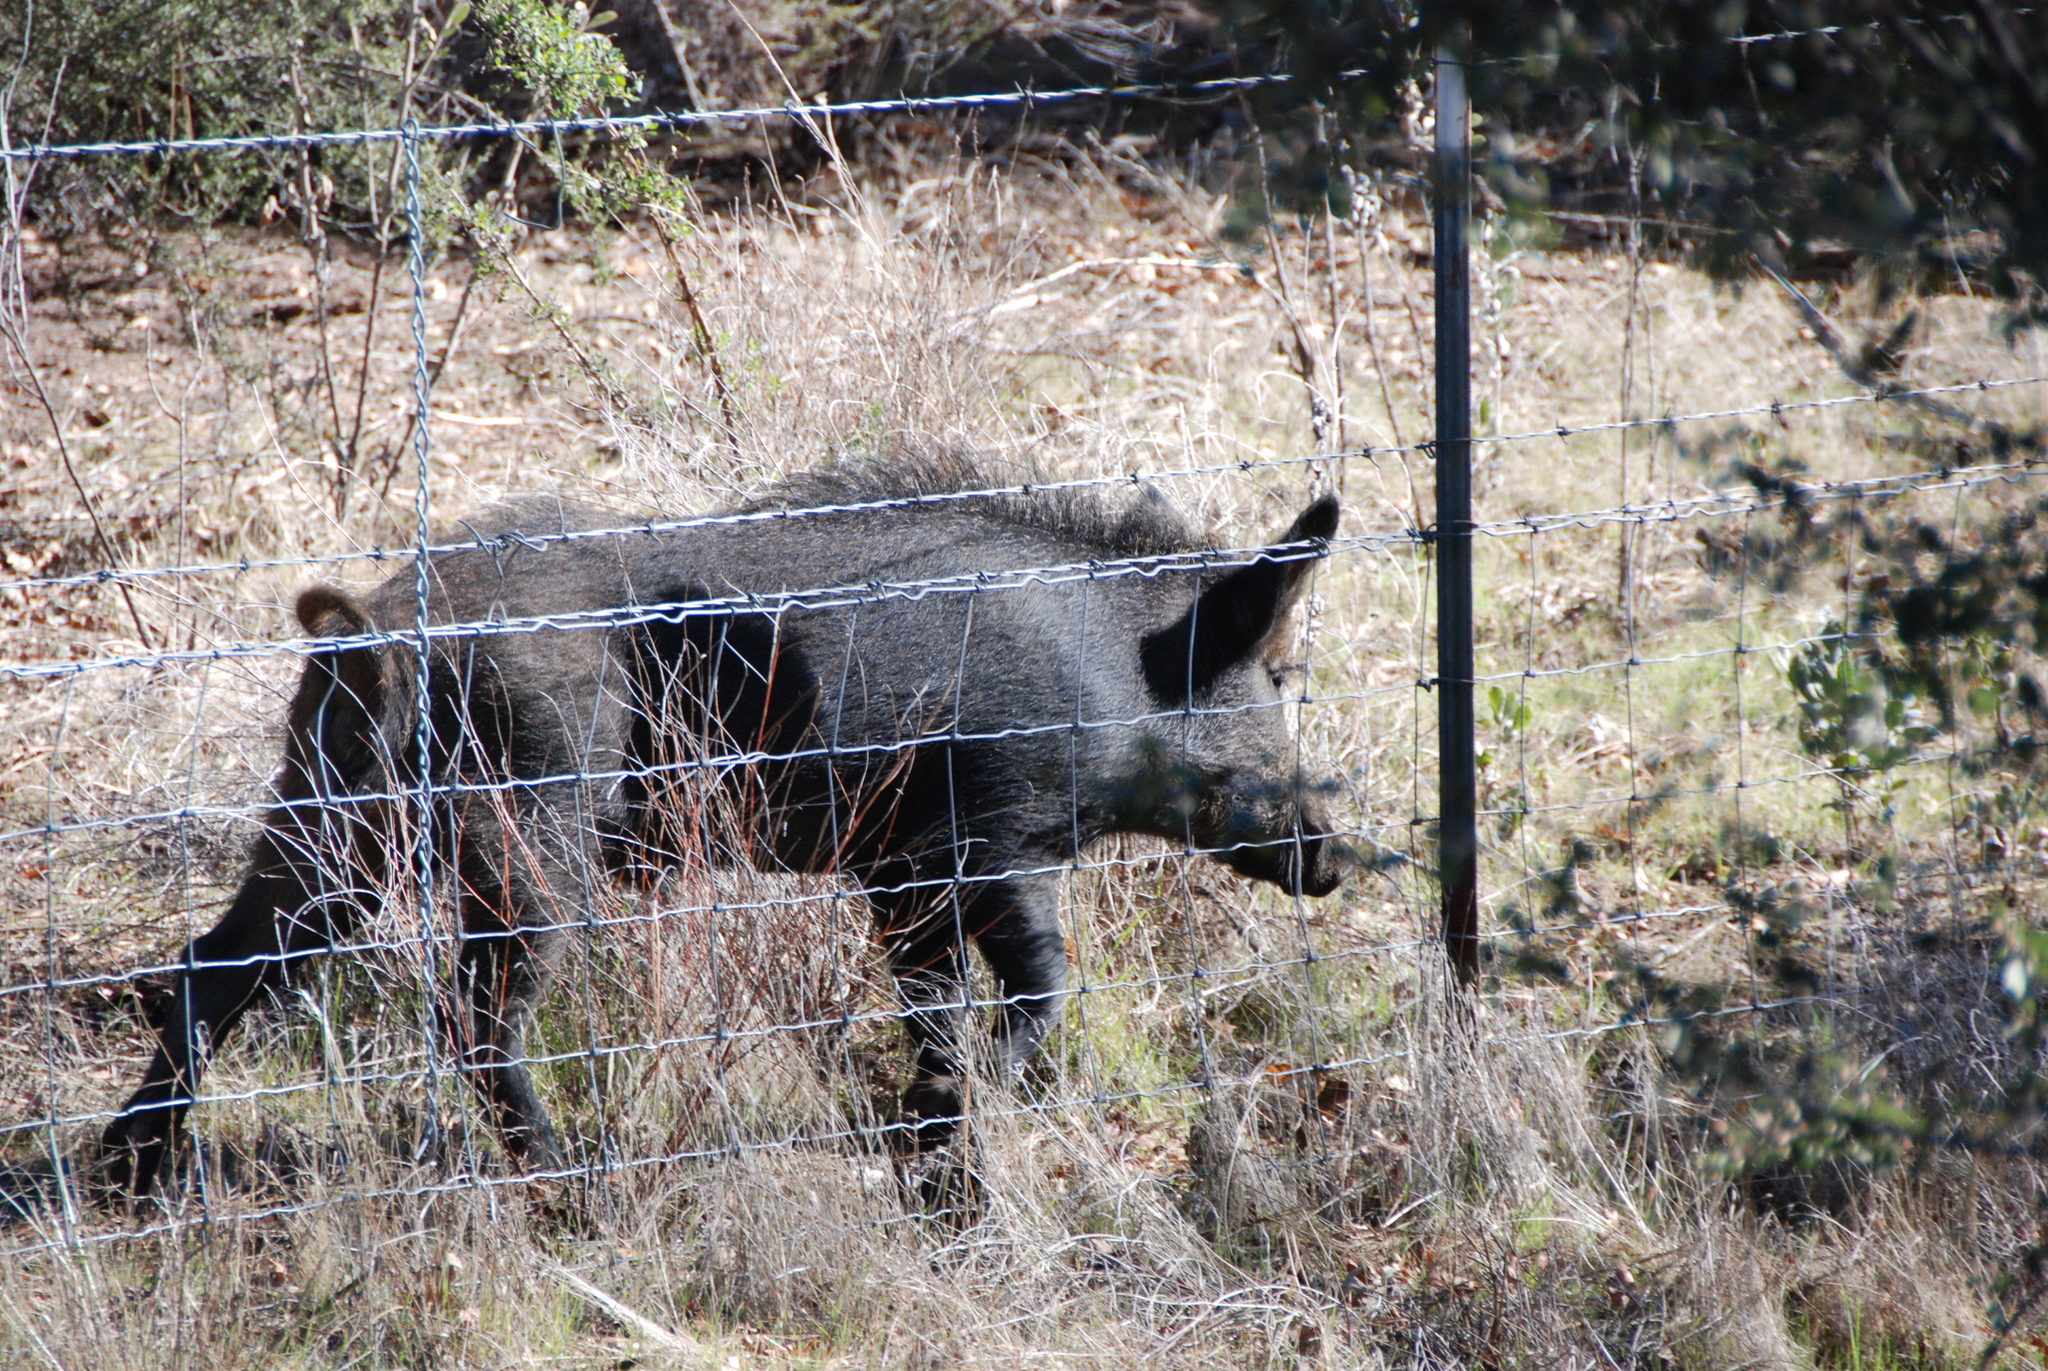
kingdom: Animalia
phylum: Chordata
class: Mammalia
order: Artiodactyla
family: Suidae
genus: Sus
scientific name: Sus scrofa
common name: Wild boar
